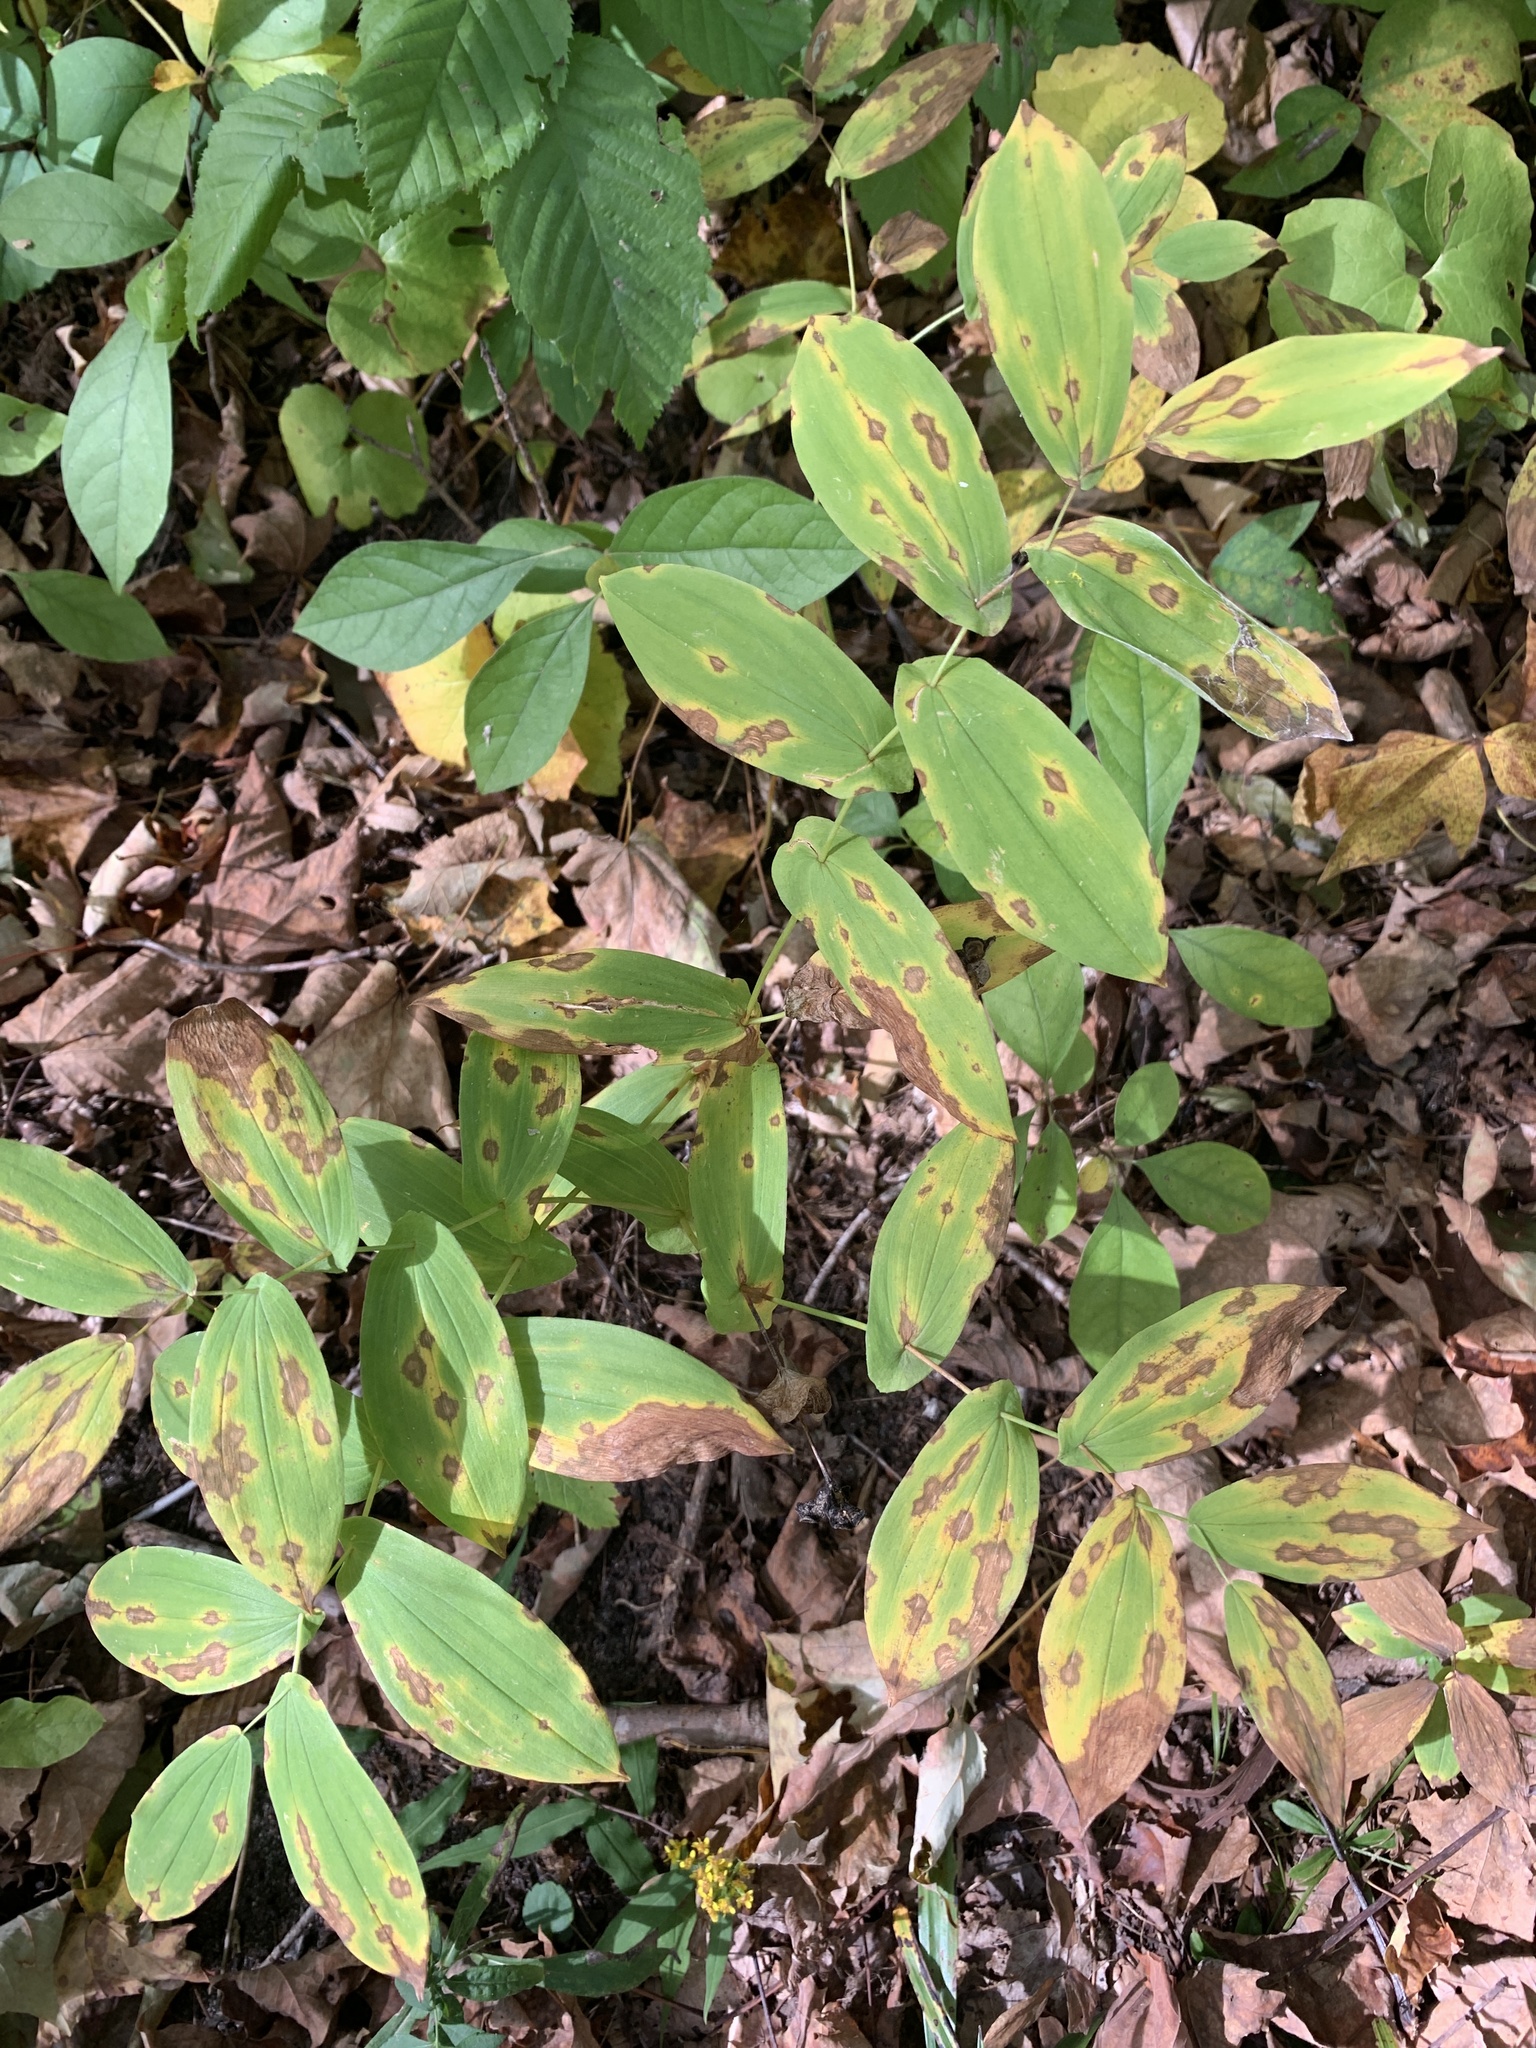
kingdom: Plantae
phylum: Tracheophyta
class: Liliopsida
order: Liliales
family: Colchicaceae
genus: Uvularia
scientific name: Uvularia grandiflora
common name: Bellwort
